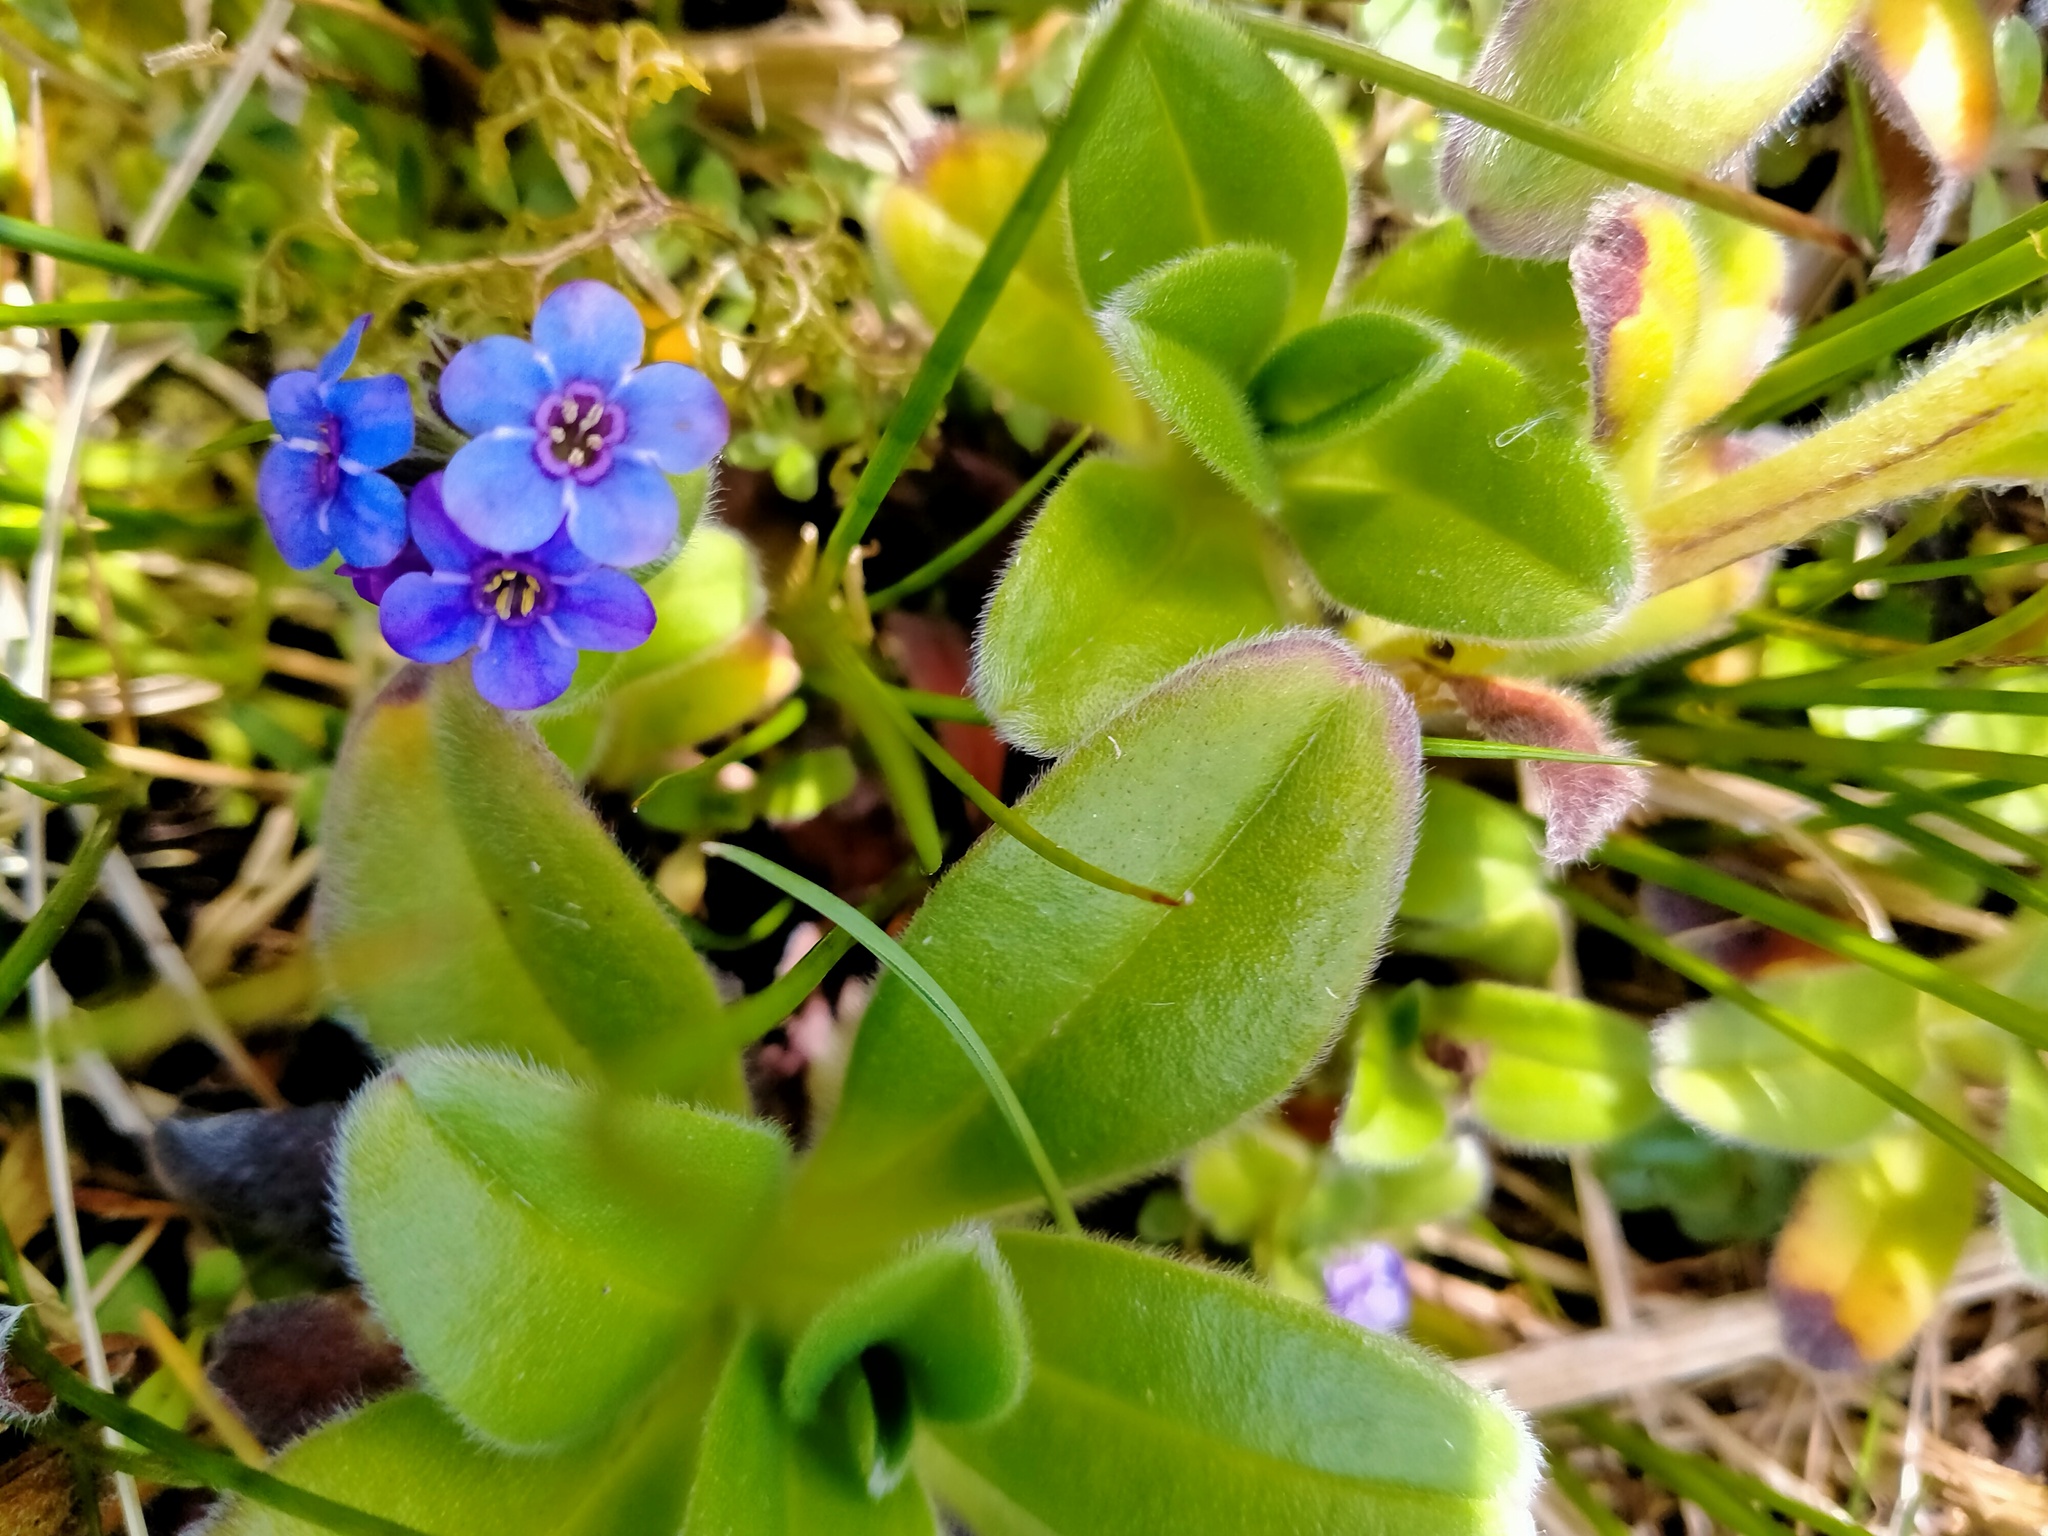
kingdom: Plantae
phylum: Tracheophyta
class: Magnoliopsida
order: Boraginales
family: Boraginaceae
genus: Myosotis
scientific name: Myosotis capitata
